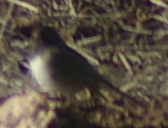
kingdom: Animalia
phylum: Chordata
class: Aves
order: Passeriformes
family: Passerellidae
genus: Junco
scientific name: Junco hyemalis
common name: Dark-eyed junco
